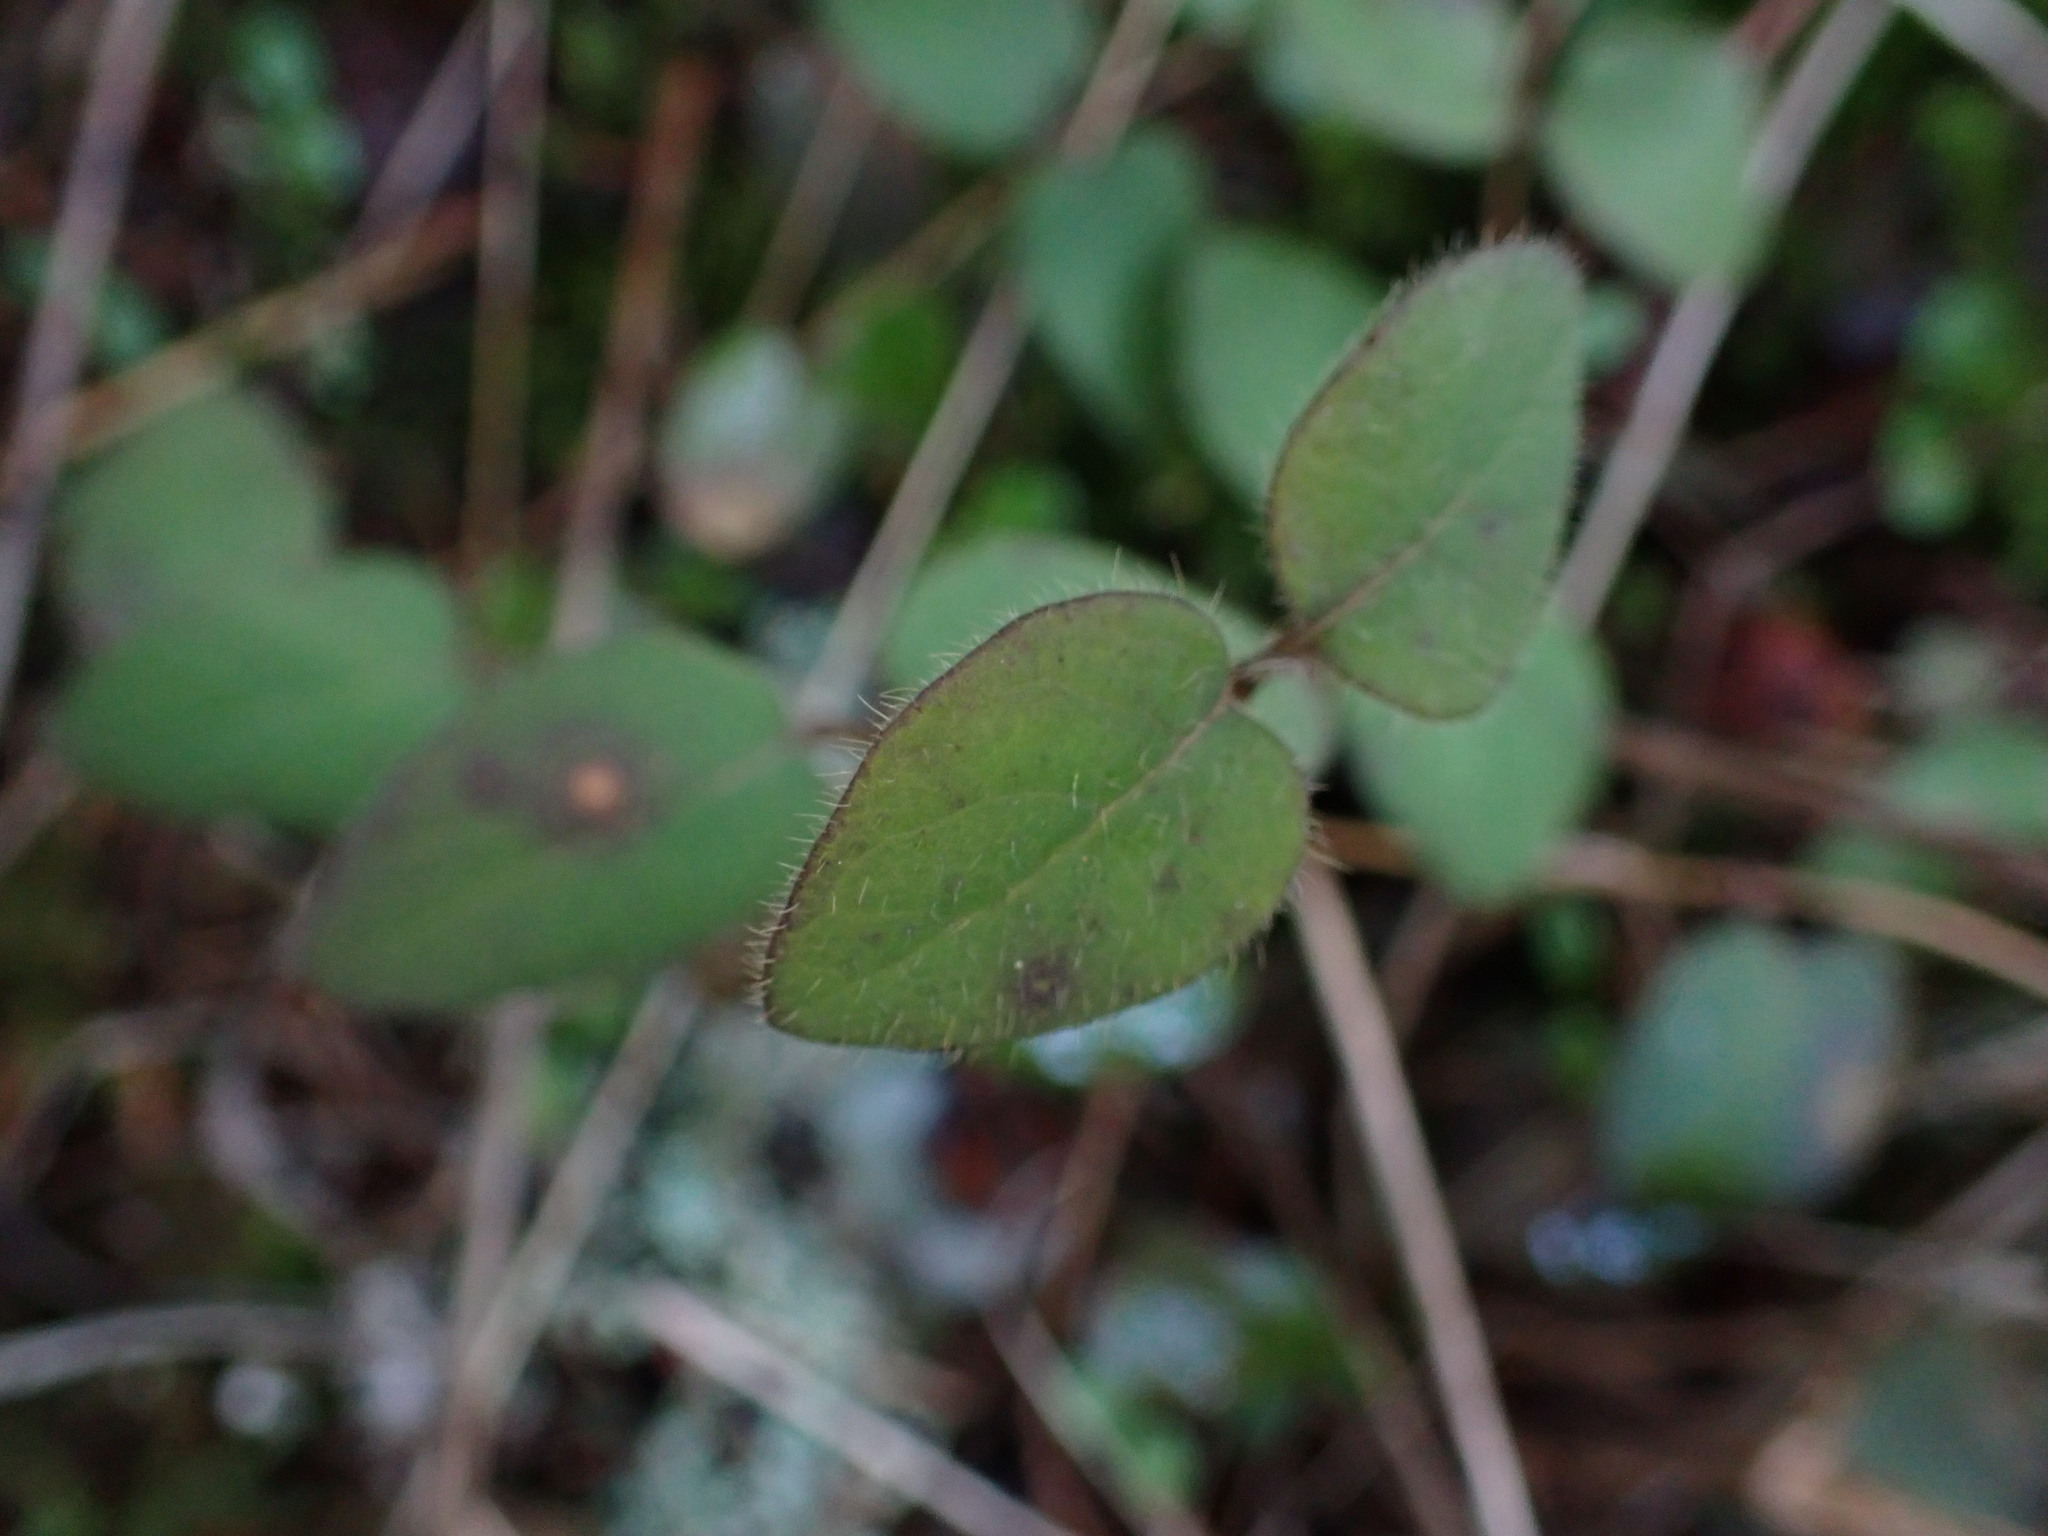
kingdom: Plantae
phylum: Tracheophyta
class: Magnoliopsida
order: Dipsacales
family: Caprifoliaceae
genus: Lonicera
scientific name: Lonicera hispidula
